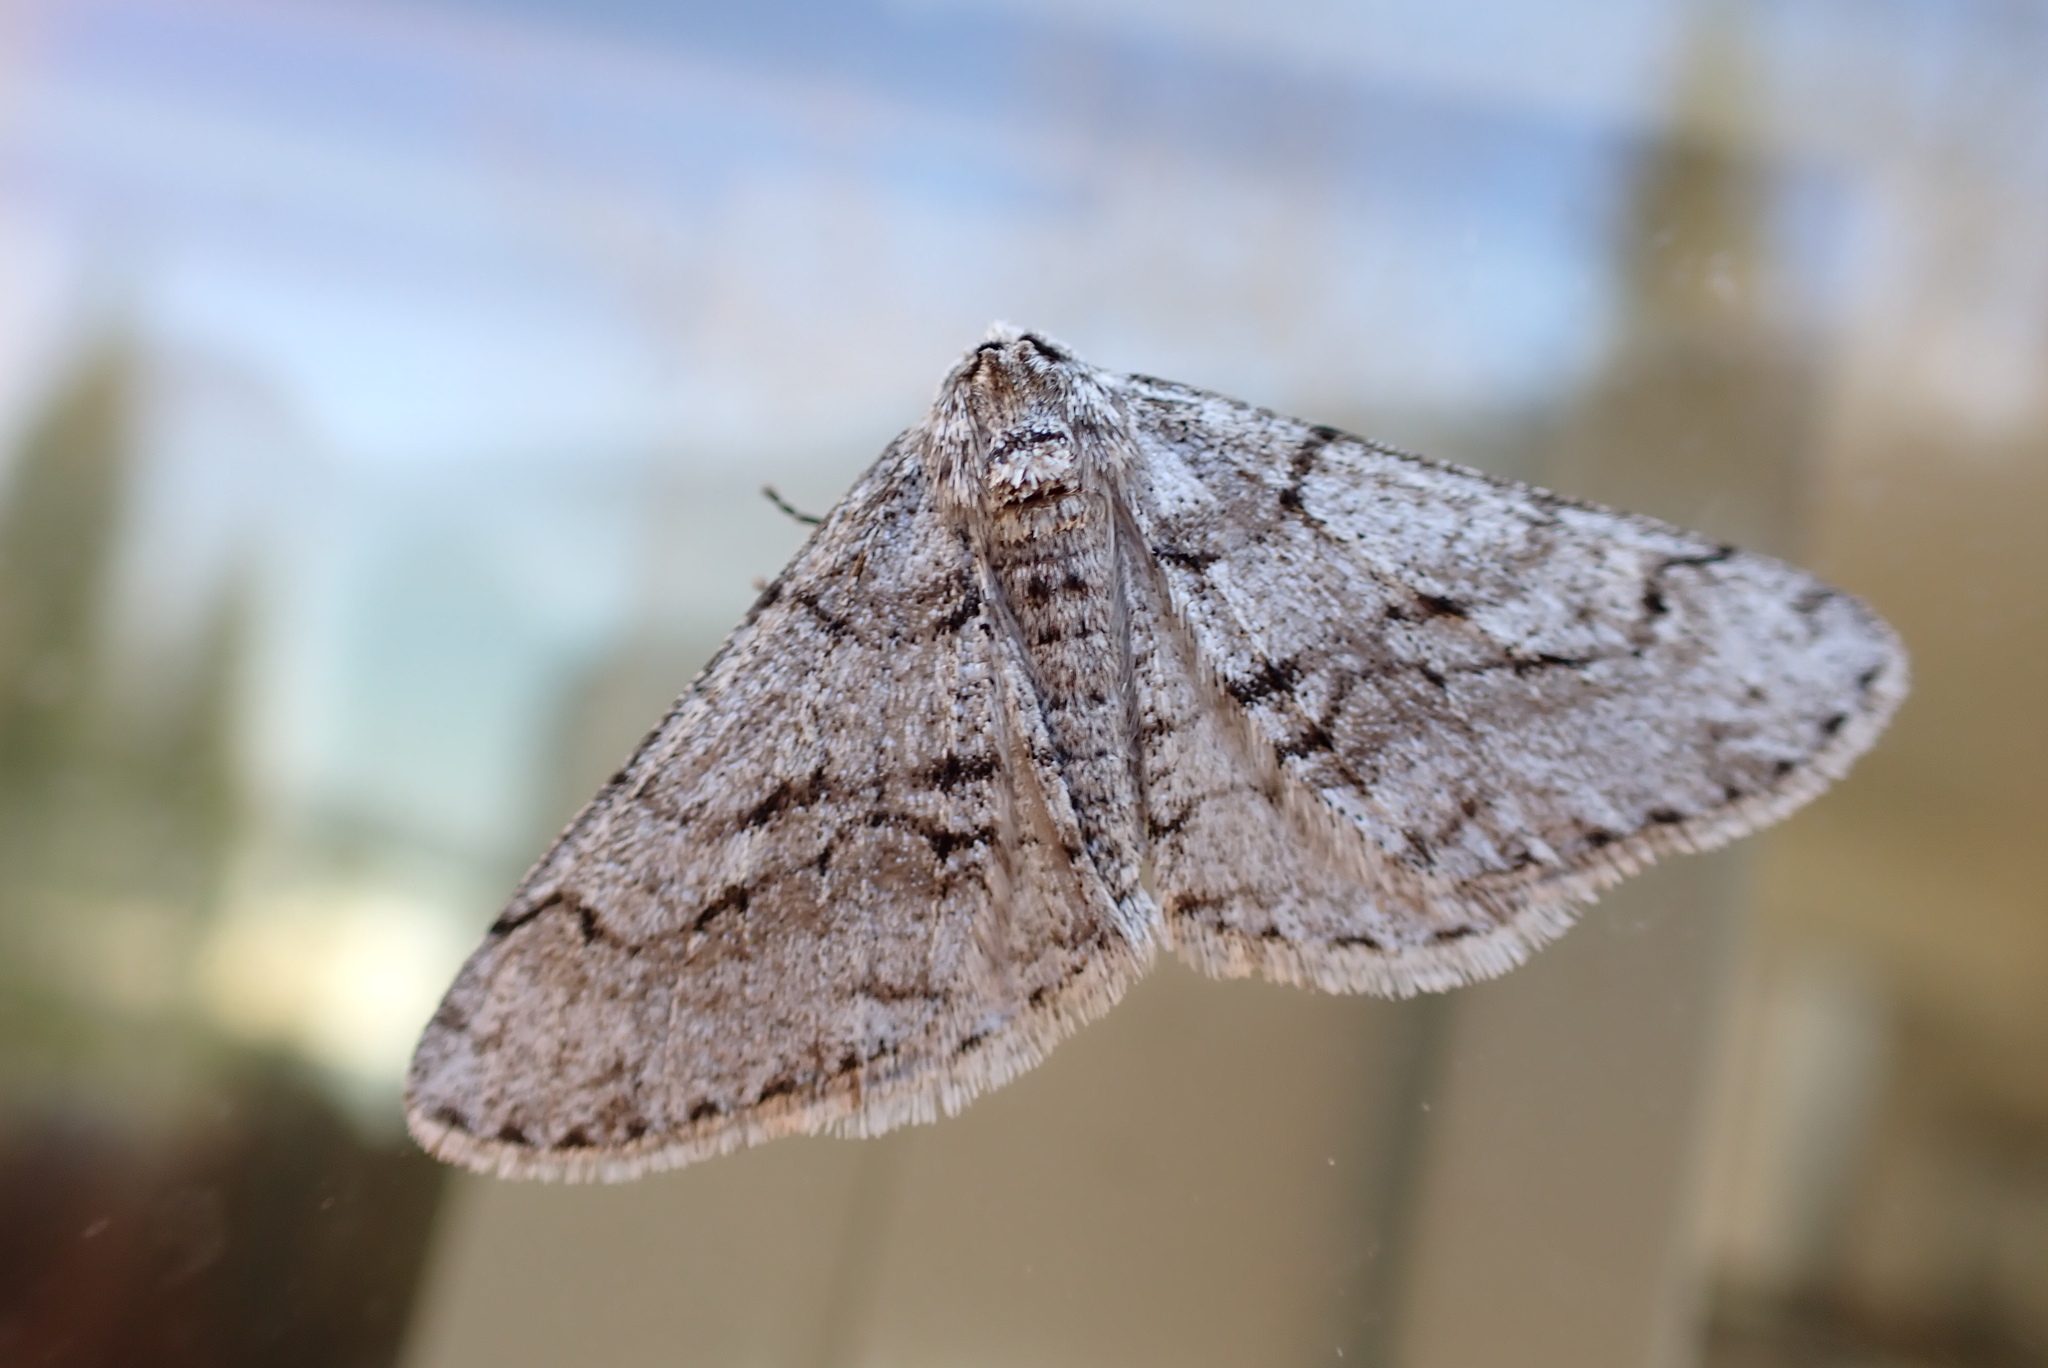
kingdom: Animalia
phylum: Arthropoda
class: Insecta
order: Lepidoptera
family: Geometridae
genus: Phigalia
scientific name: Phigalia titea
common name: Spiny looper
